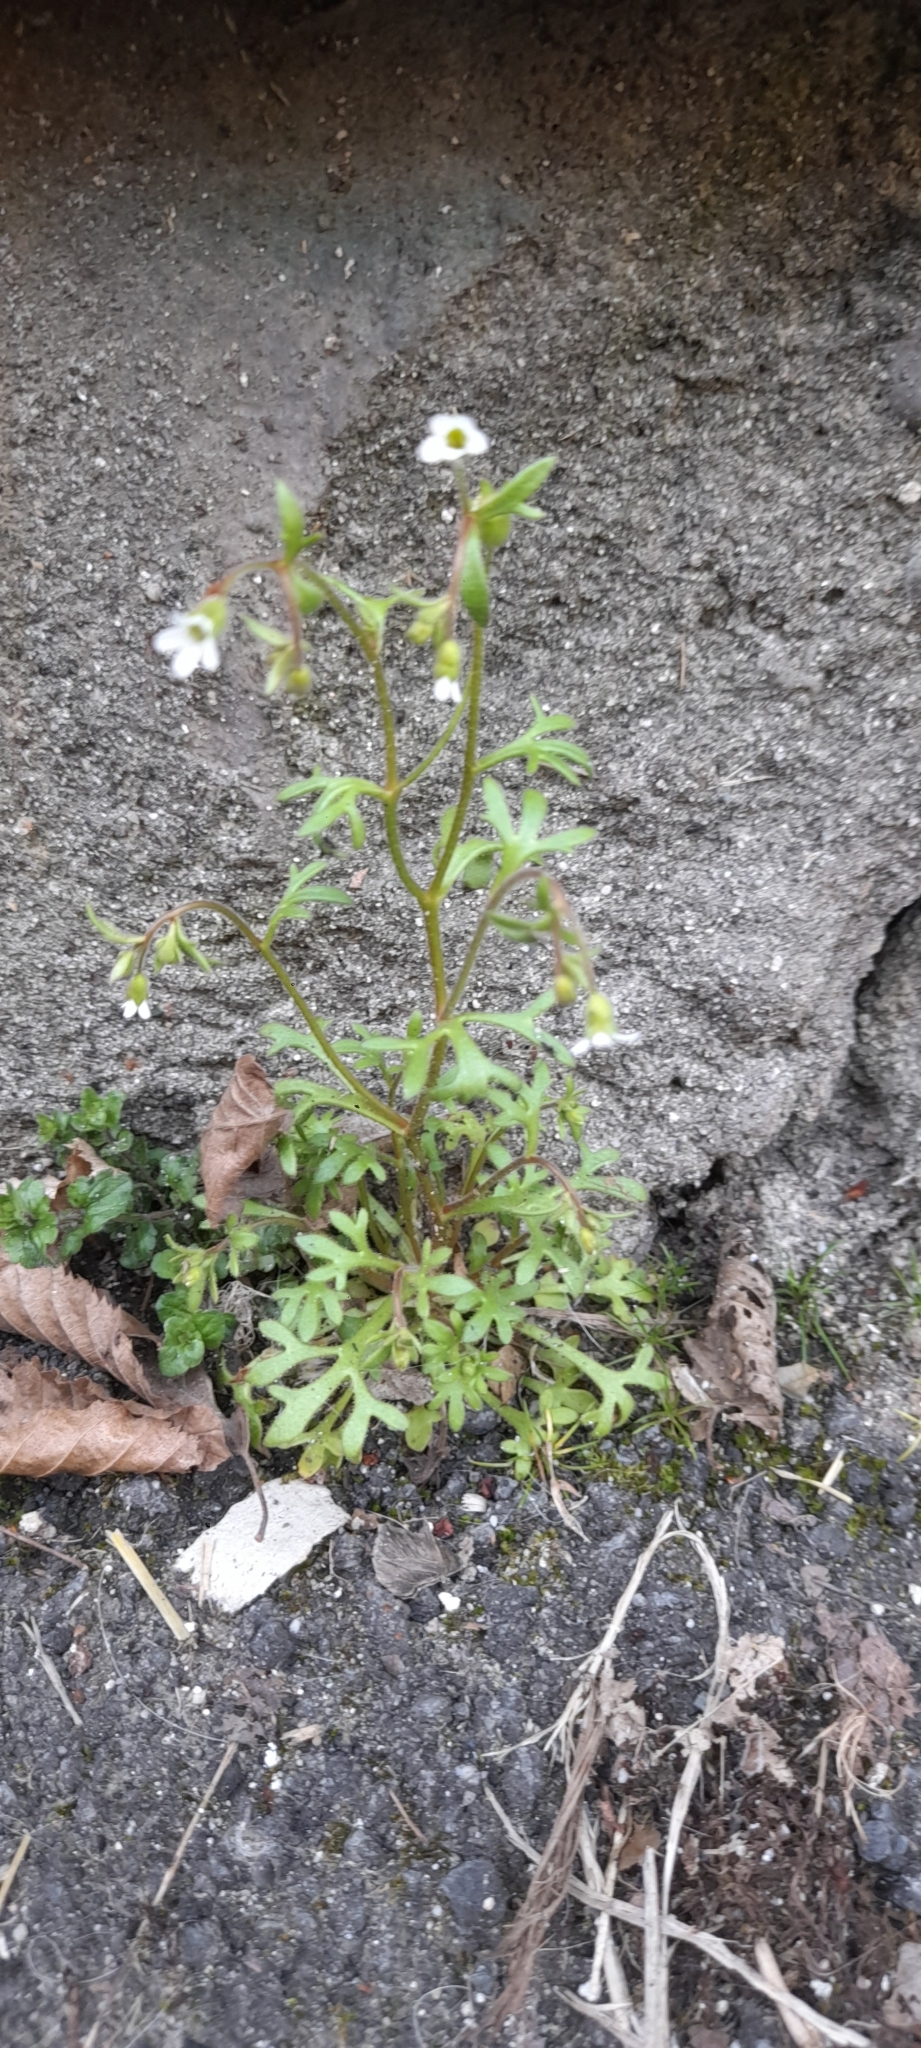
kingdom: Plantae
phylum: Tracheophyta
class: Magnoliopsida
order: Saxifragales
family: Saxifragaceae
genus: Saxifraga
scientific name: Saxifraga tridactylites
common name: Rue-leaved saxifrage
